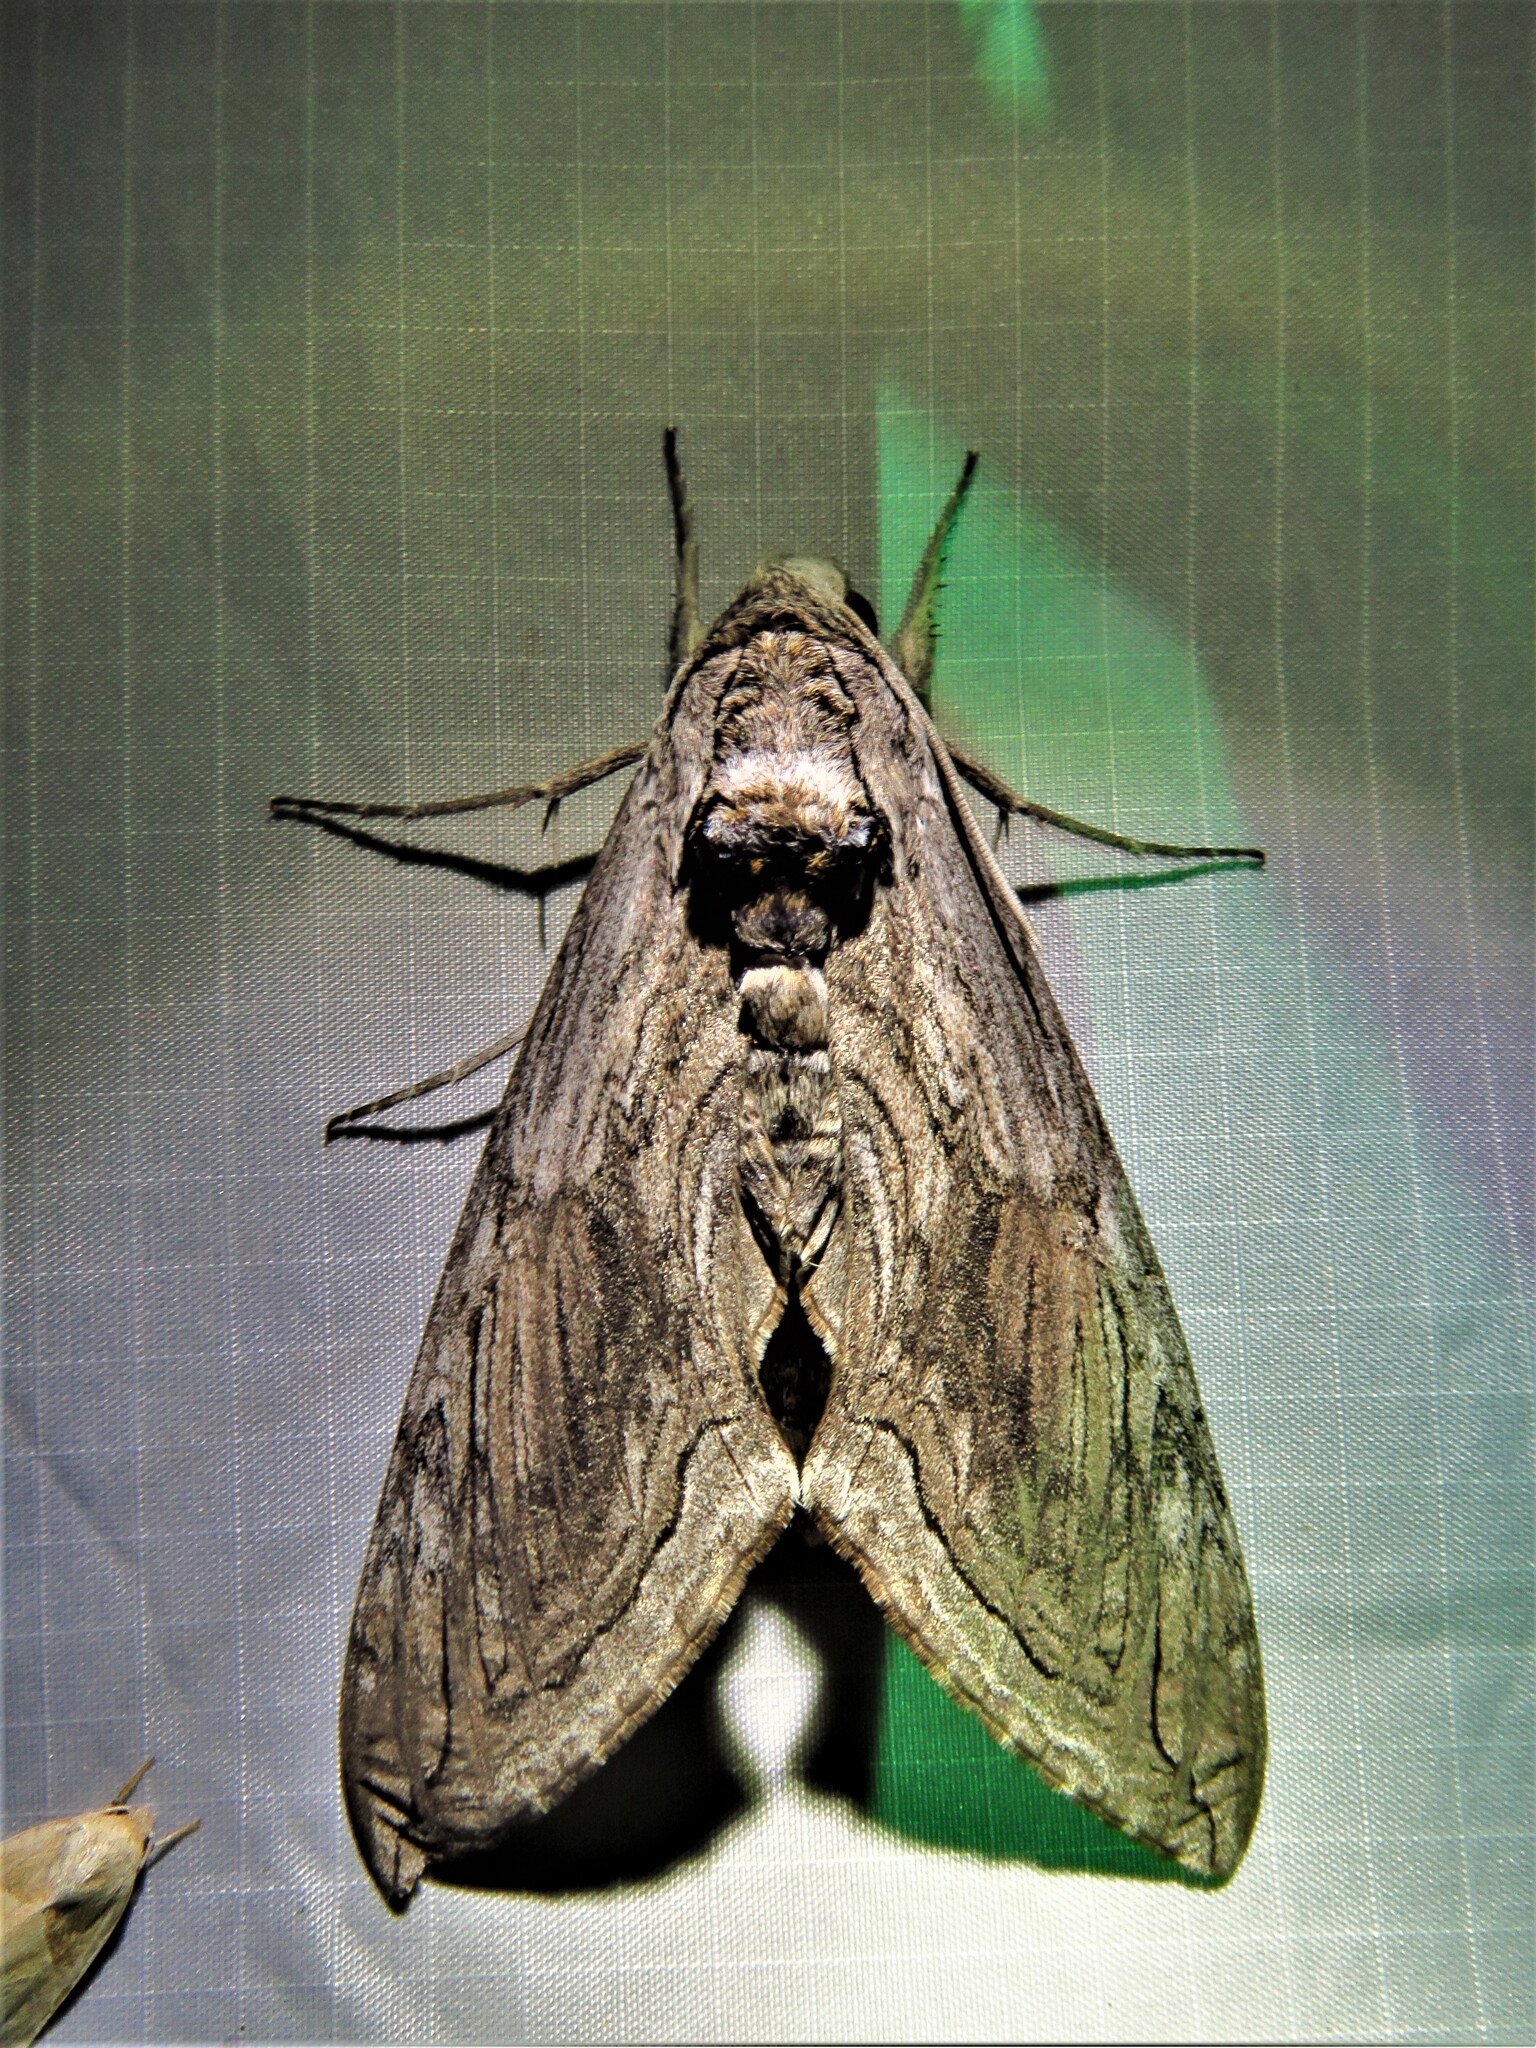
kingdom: Animalia
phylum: Arthropoda
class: Insecta
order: Lepidoptera
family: Sphingidae
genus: Manduca
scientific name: Manduca quinquemaculatus
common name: Five-spotted hawk-moth
